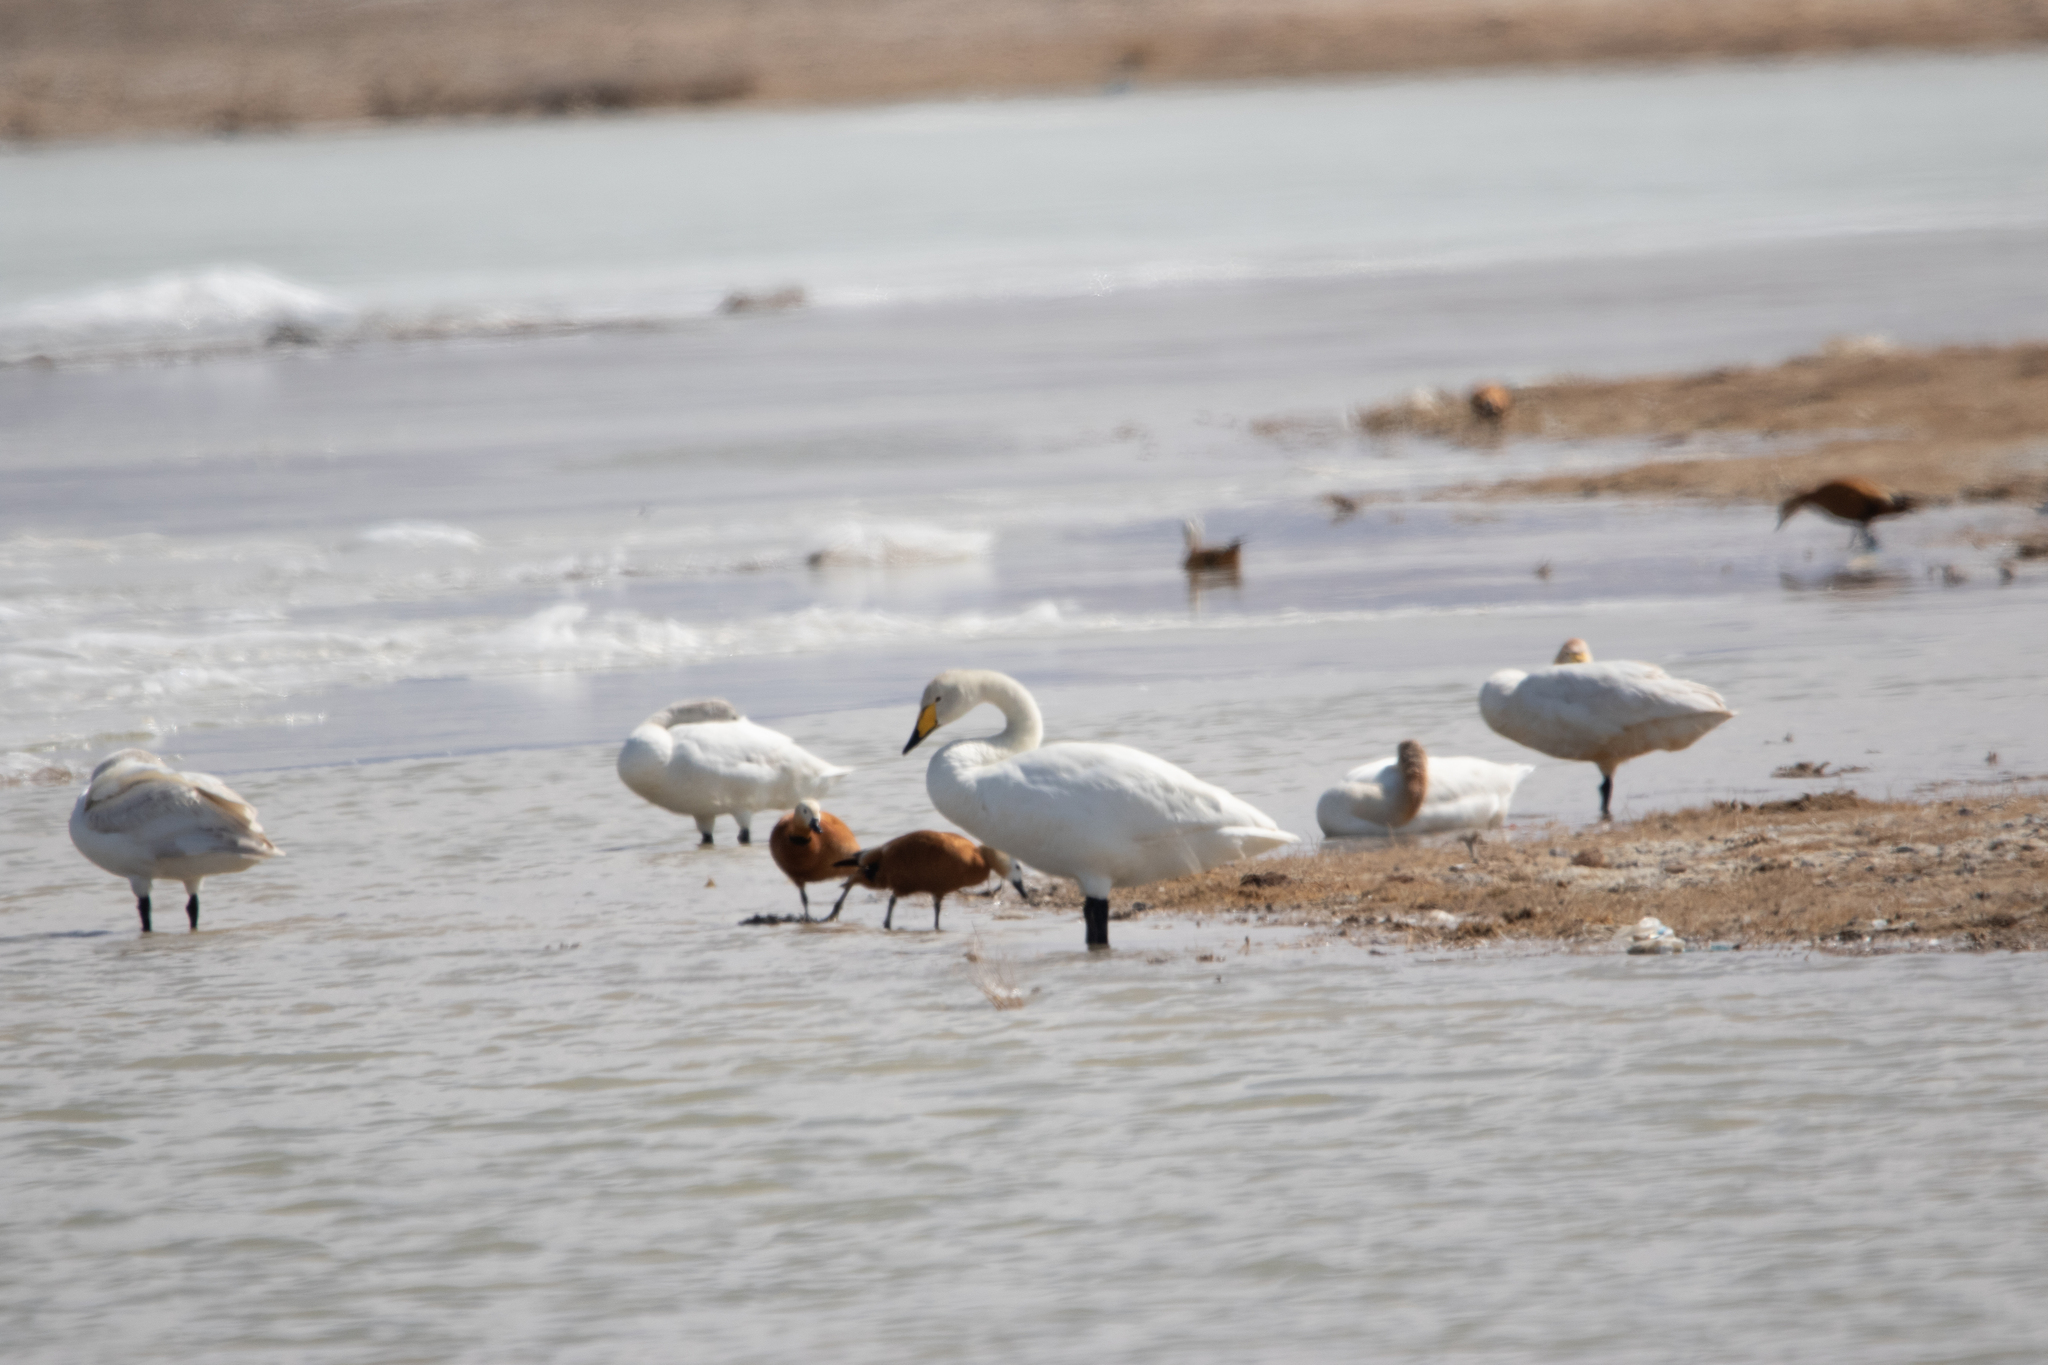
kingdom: Animalia
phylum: Chordata
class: Aves
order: Anseriformes
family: Anatidae
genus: Cygnus
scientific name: Cygnus cygnus
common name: Whooper swan
